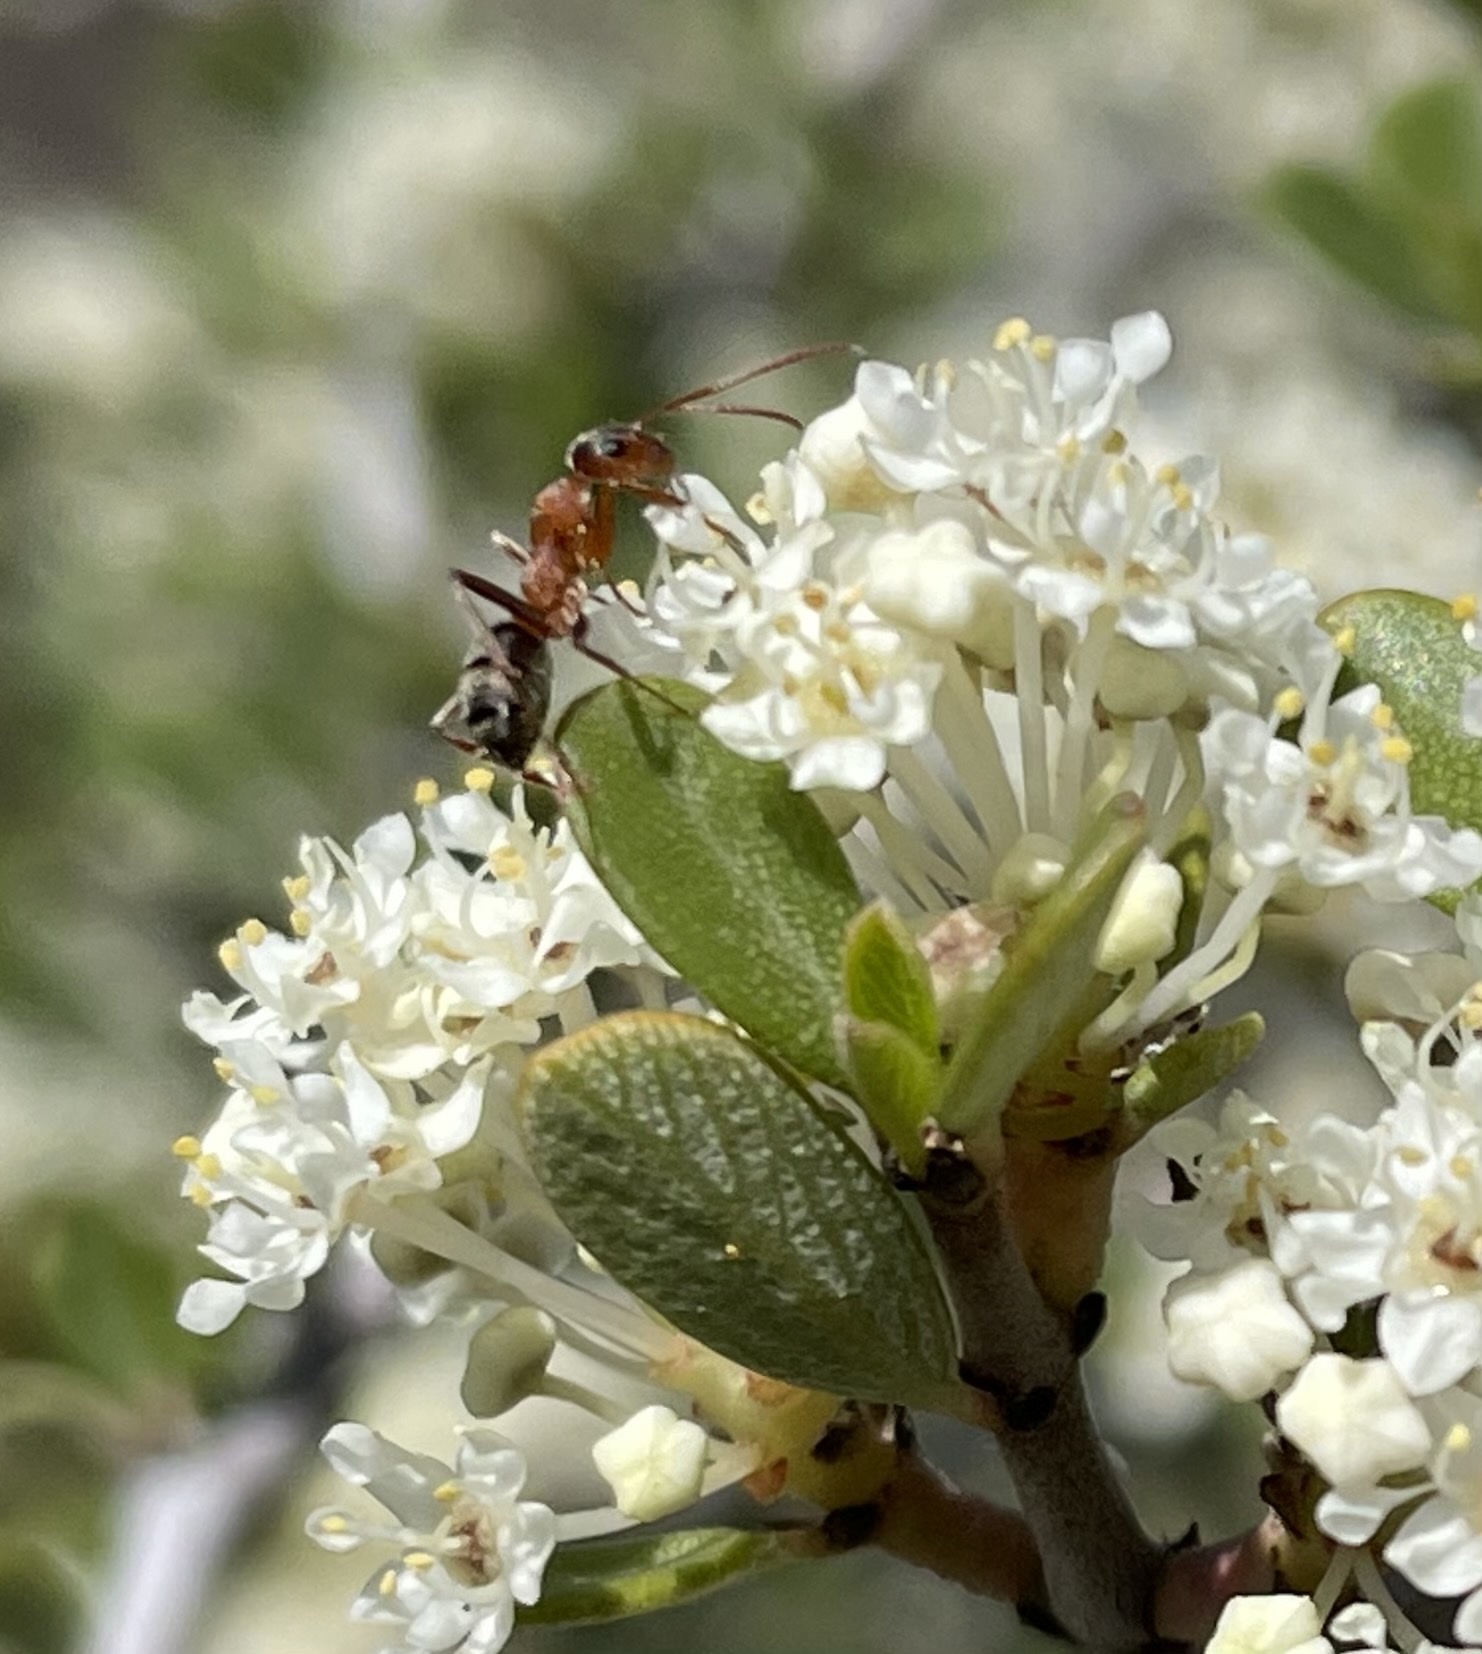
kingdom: Plantae
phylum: Tracheophyta
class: Magnoliopsida
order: Rosales
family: Rhamnaceae
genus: Ceanothus
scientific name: Ceanothus cuneatus
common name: Cuneate ceanothus
